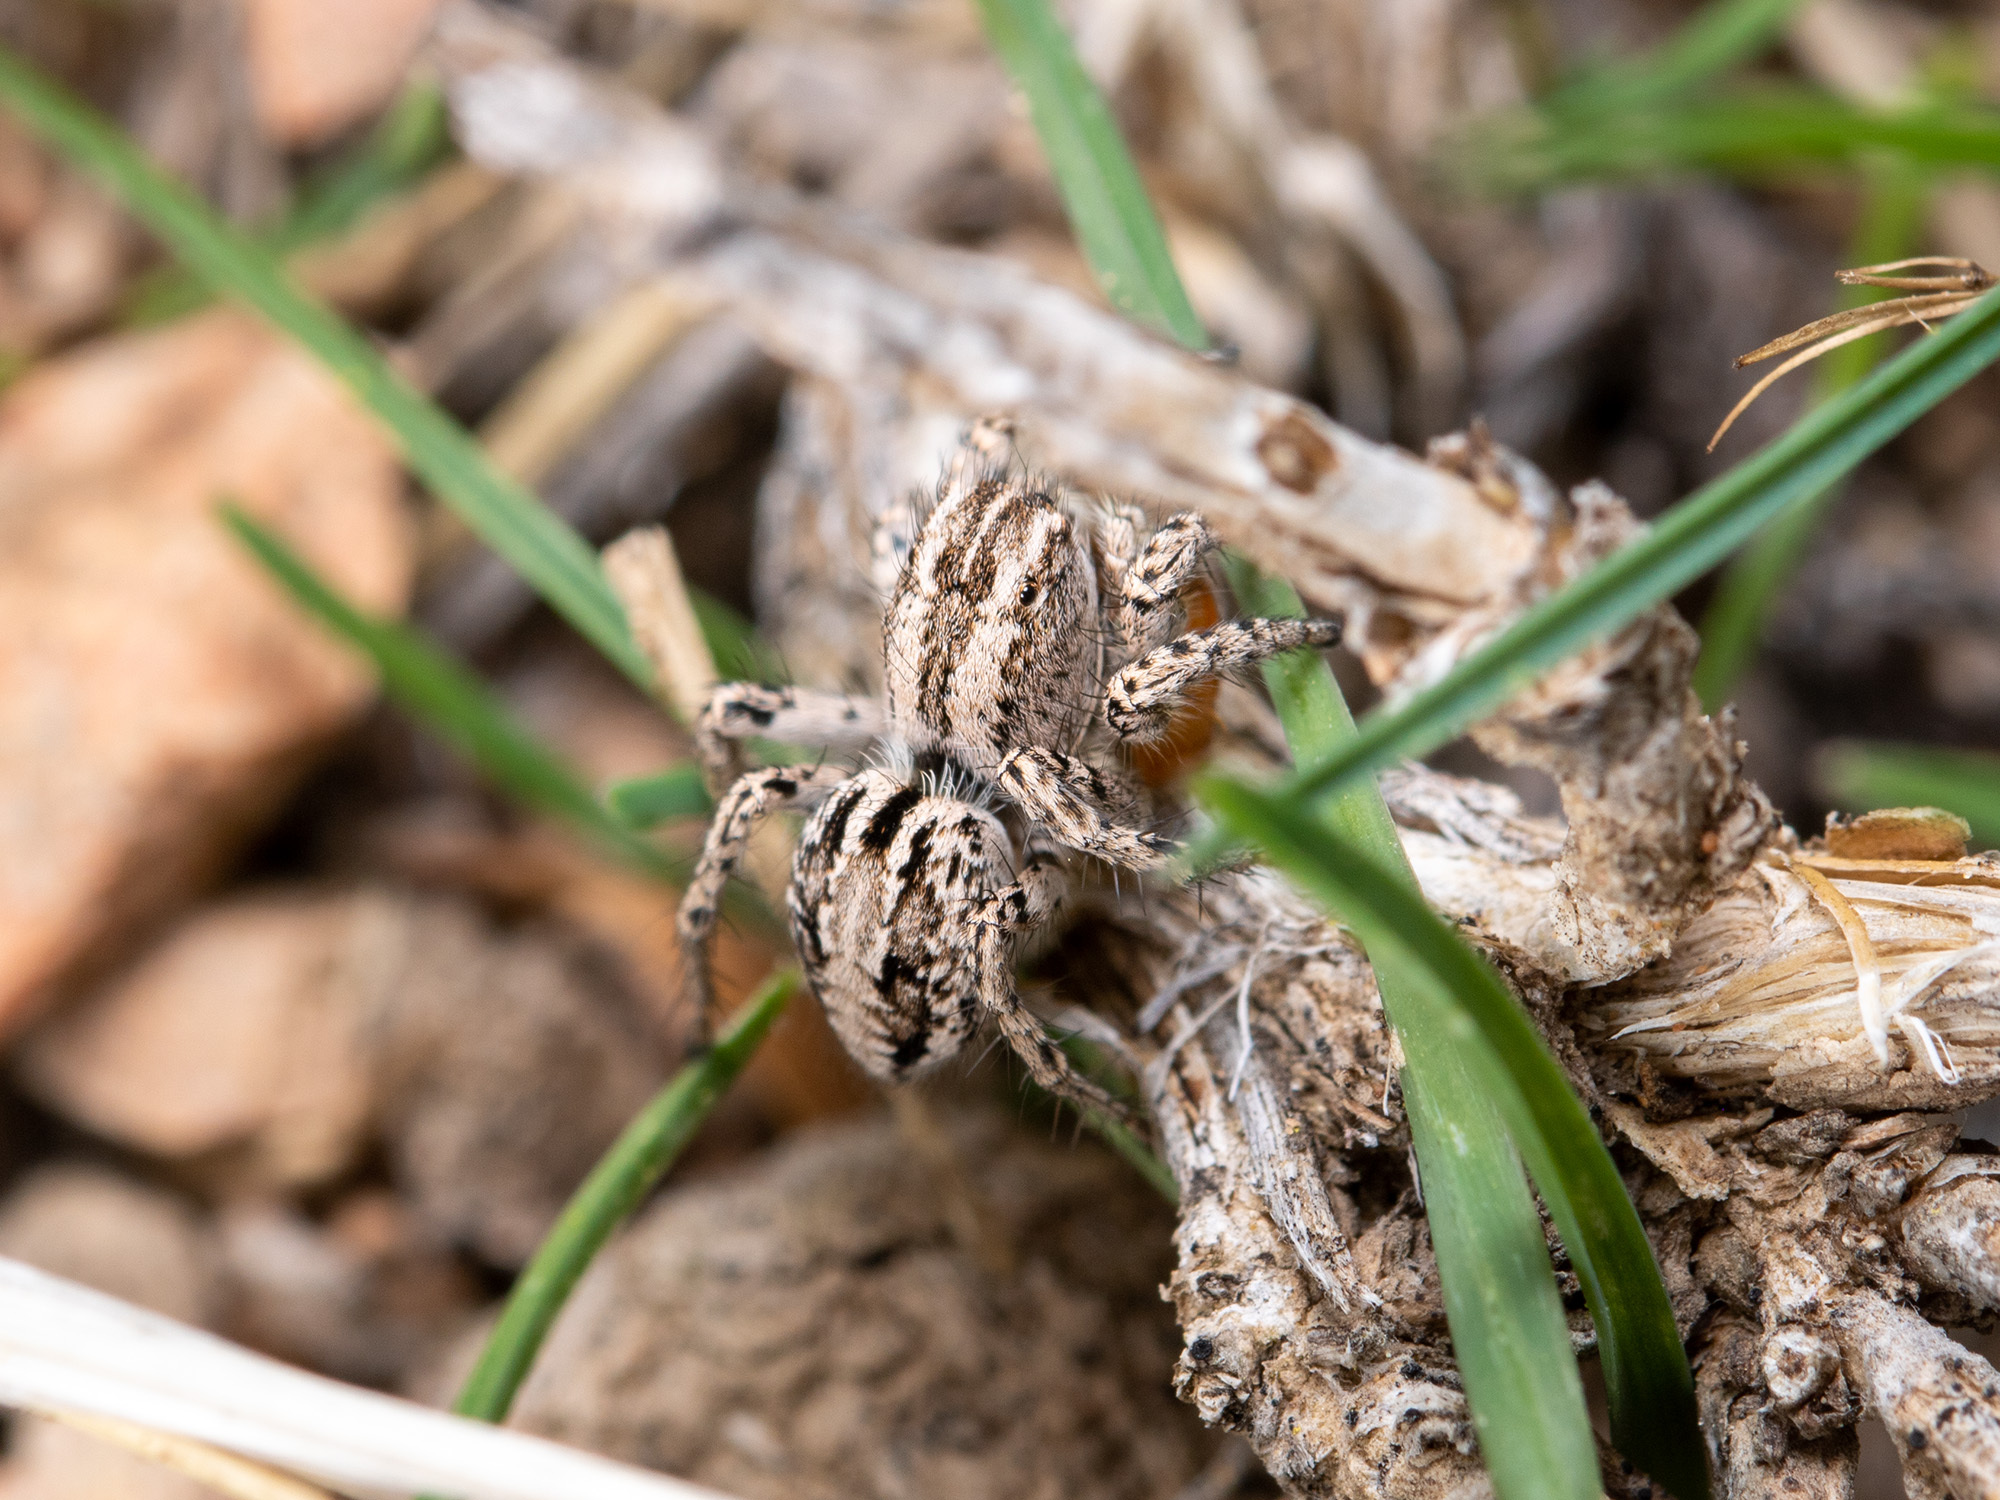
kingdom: Animalia
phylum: Arthropoda
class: Arachnida
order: Araneae
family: Salticidae
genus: Aelurillus
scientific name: Aelurillus m-nigrum
